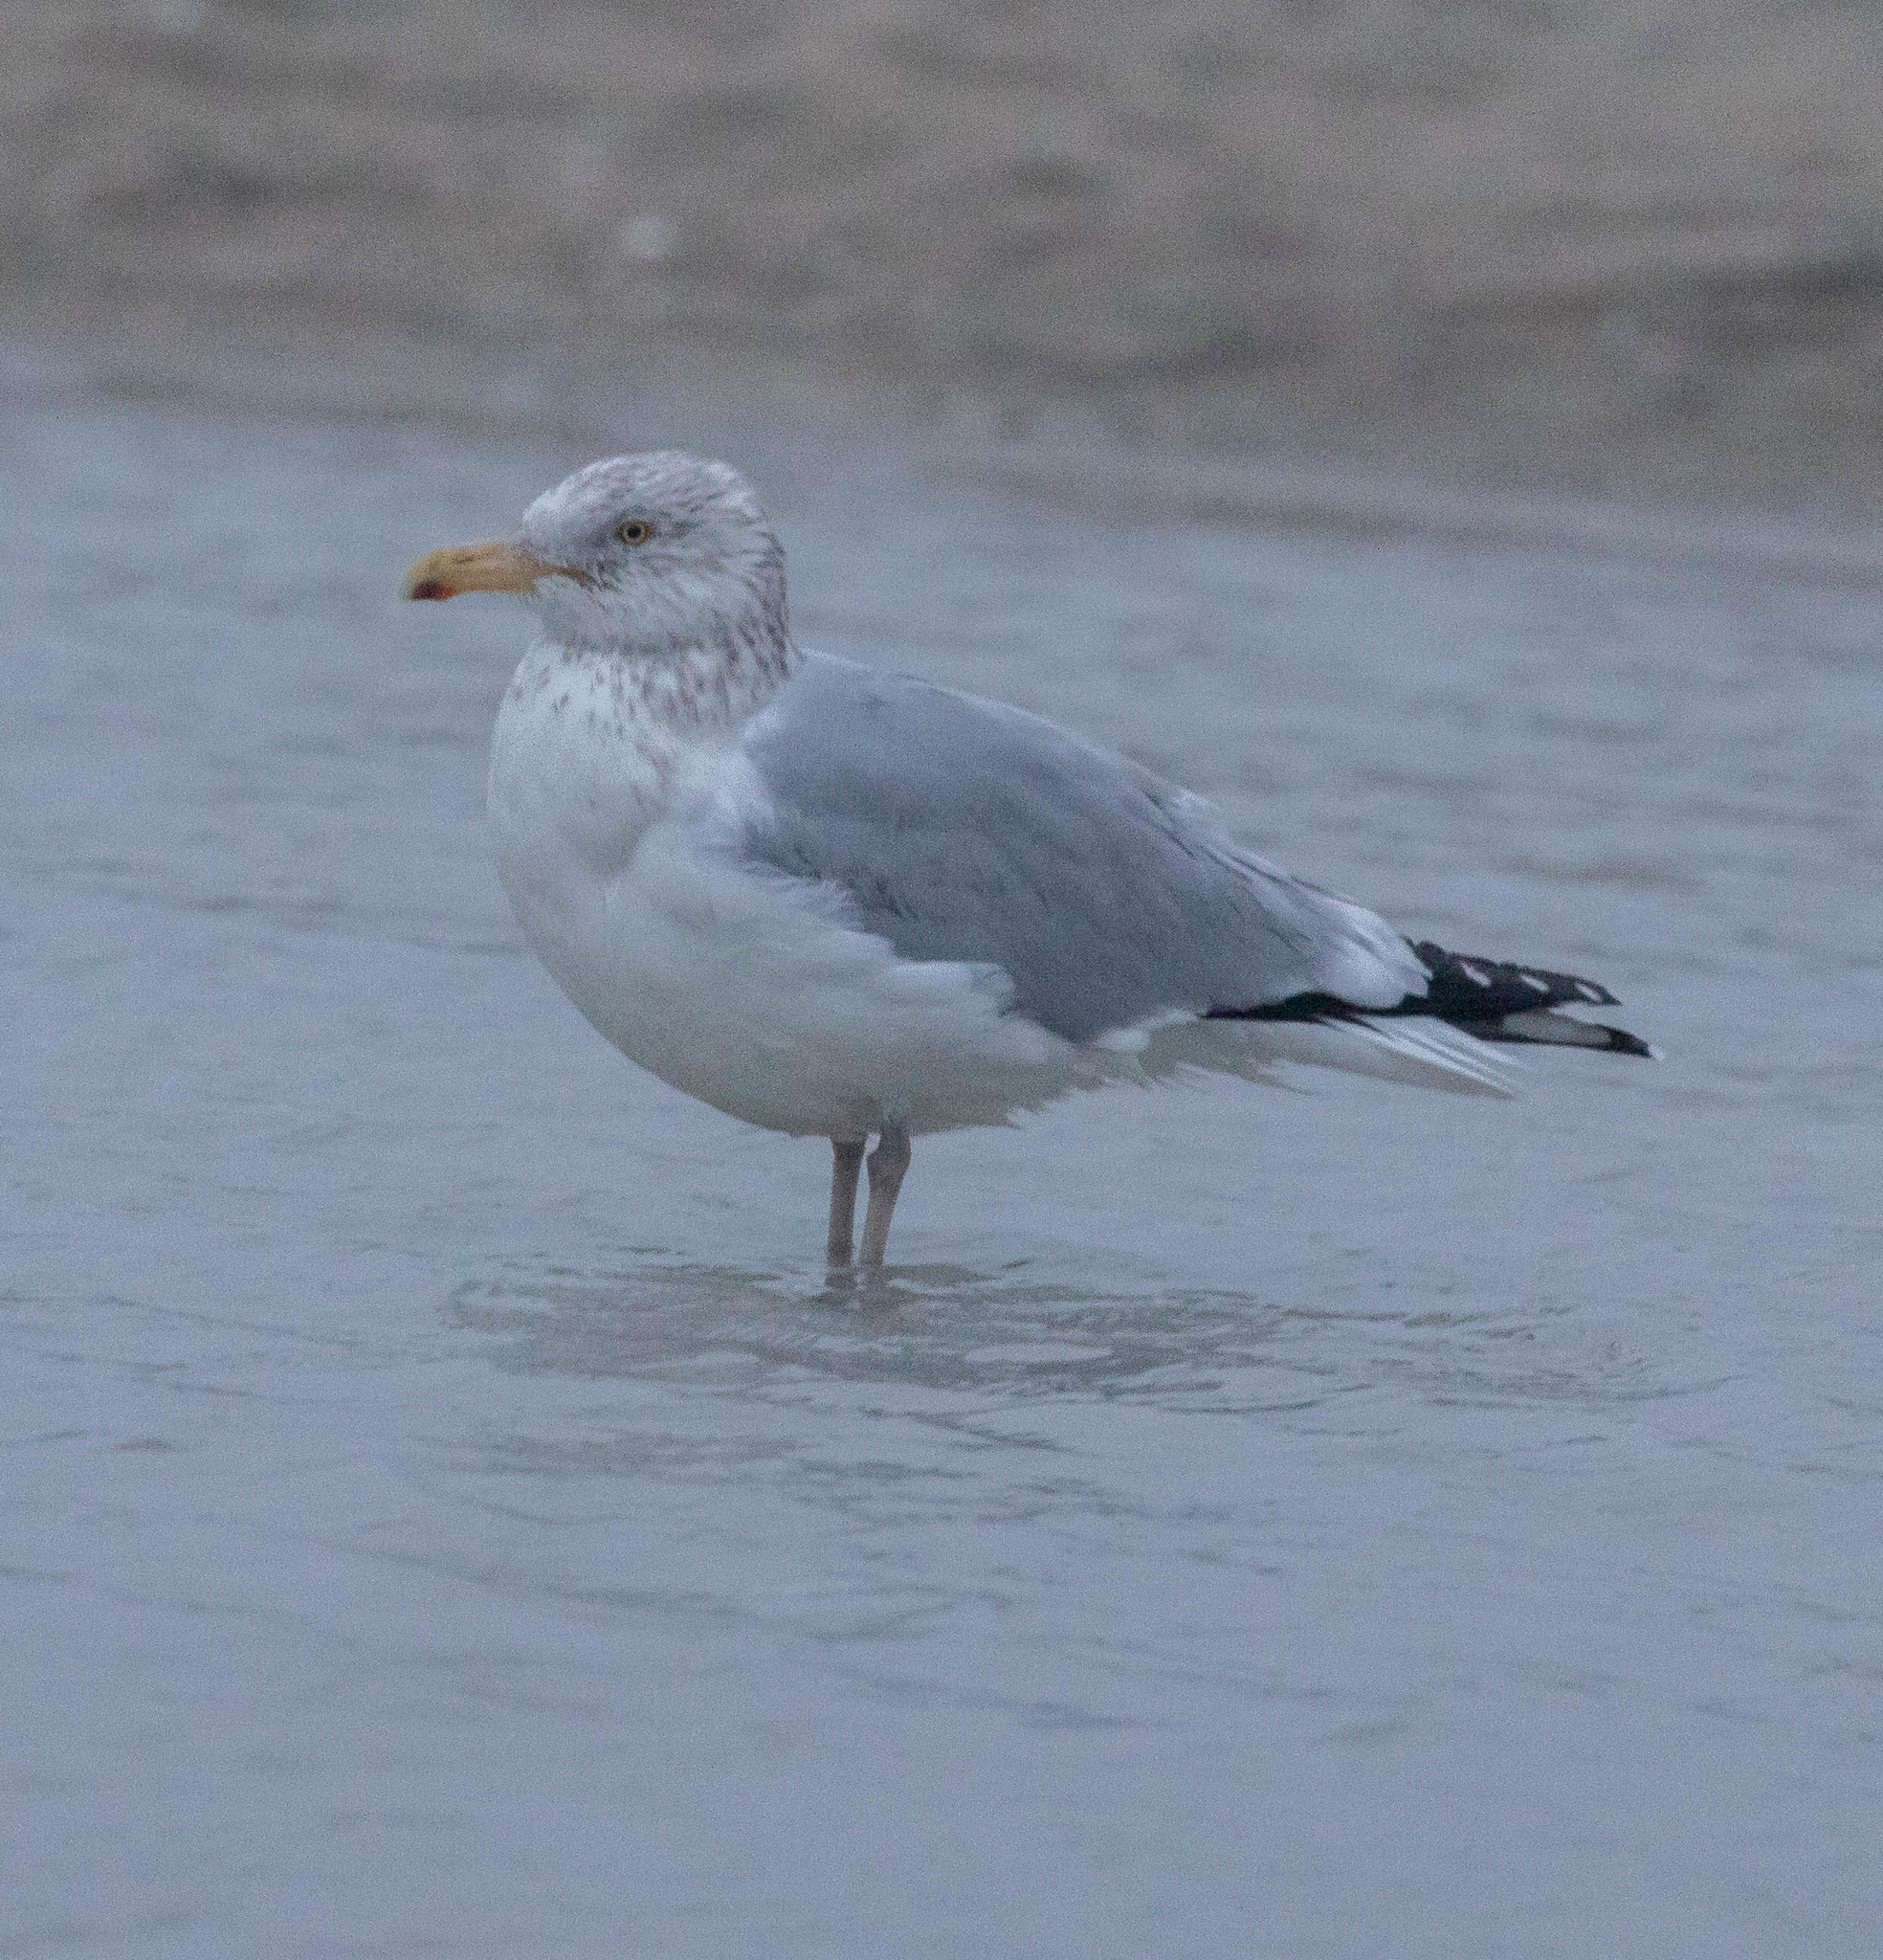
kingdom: Animalia
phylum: Chordata
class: Aves
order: Charadriiformes
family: Laridae
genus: Larus
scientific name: Larus argentatus
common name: Herring gull
